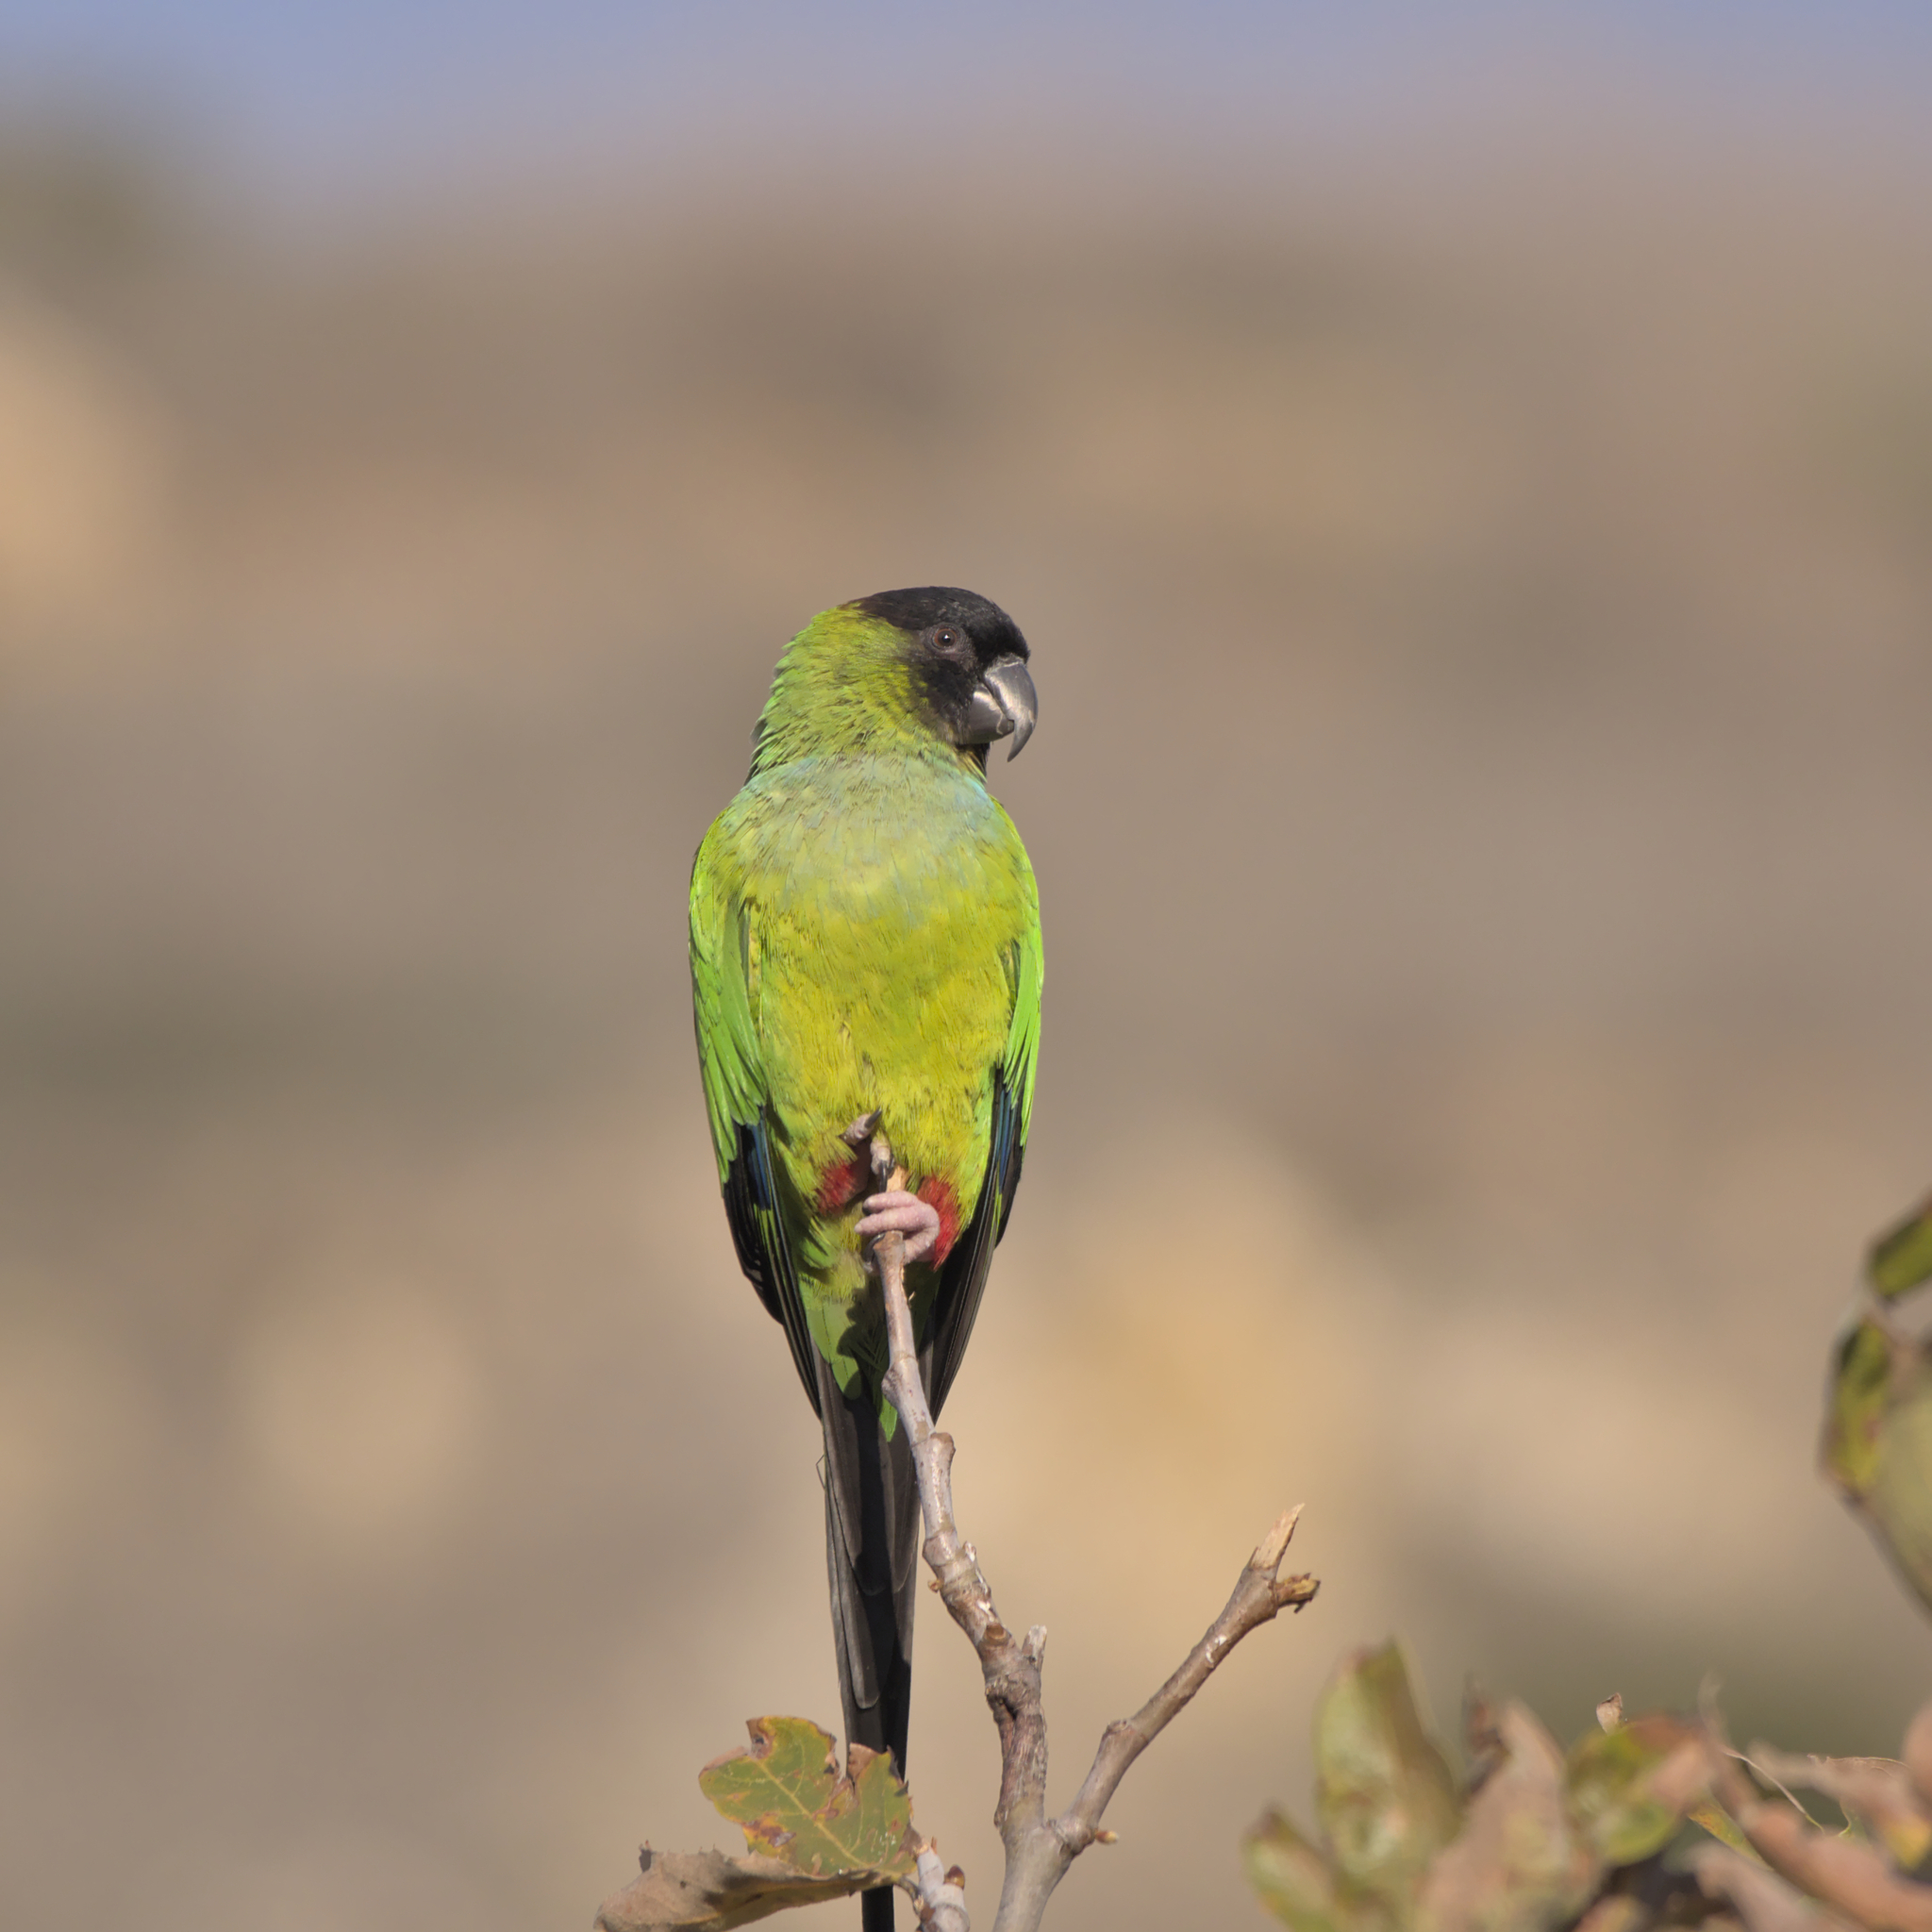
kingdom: Animalia
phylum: Chordata
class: Aves
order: Psittaciformes
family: Psittacidae
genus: Nandayus
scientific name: Nandayus nenday
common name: Nanday parakeet
